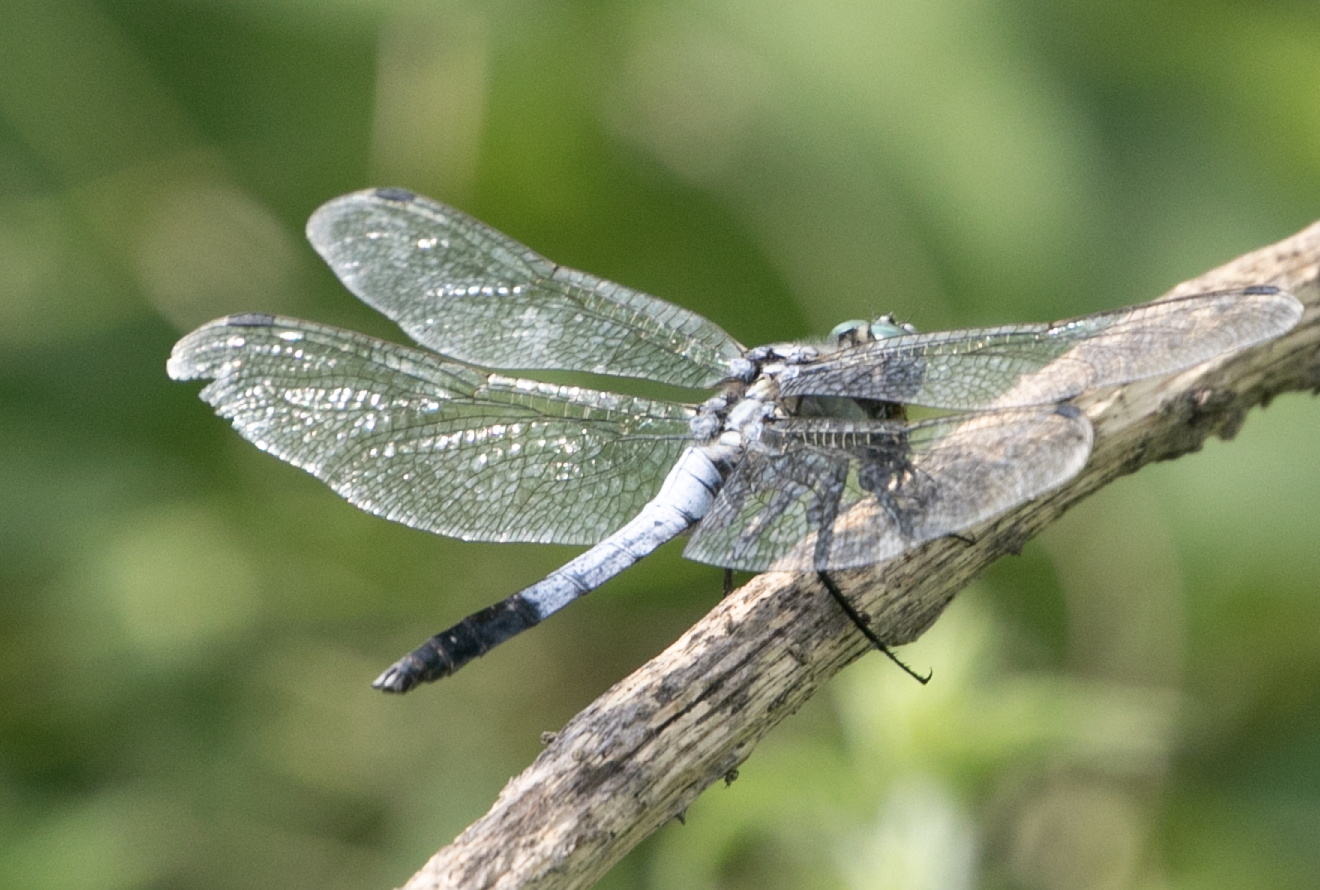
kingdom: Animalia
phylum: Arthropoda
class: Insecta
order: Odonata
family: Libellulidae
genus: Orthetrum
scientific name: Orthetrum albistylum
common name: White-tailed skimmer
